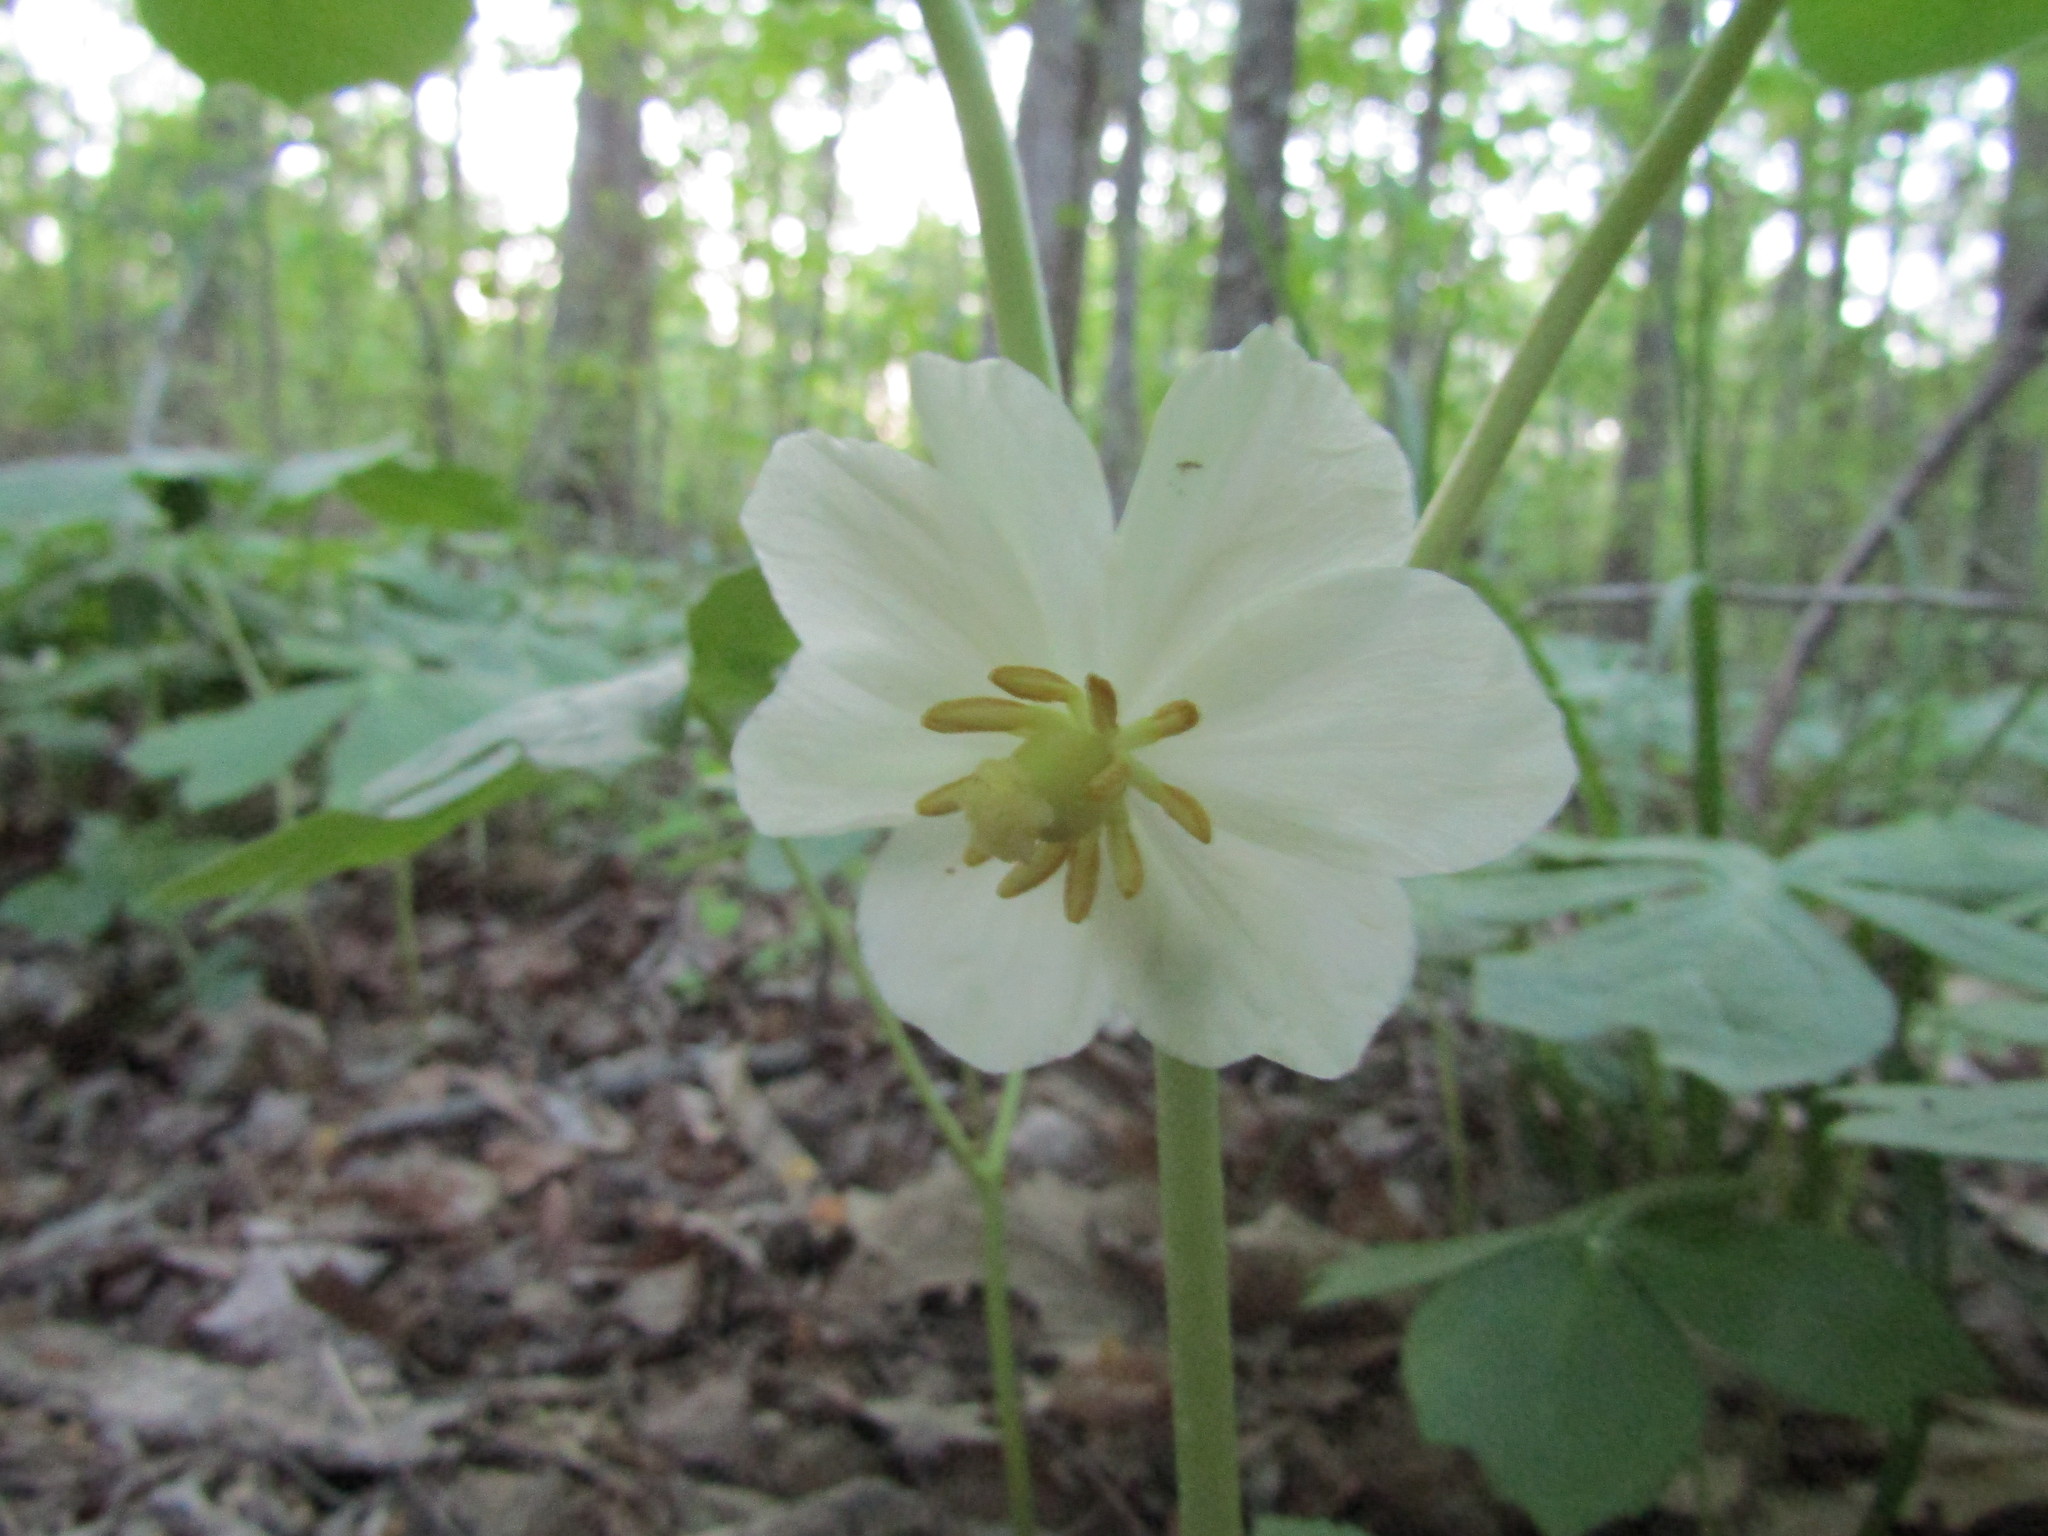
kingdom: Plantae
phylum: Tracheophyta
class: Magnoliopsida
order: Ranunculales
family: Berberidaceae
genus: Podophyllum
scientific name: Podophyllum peltatum
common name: Wild mandrake
